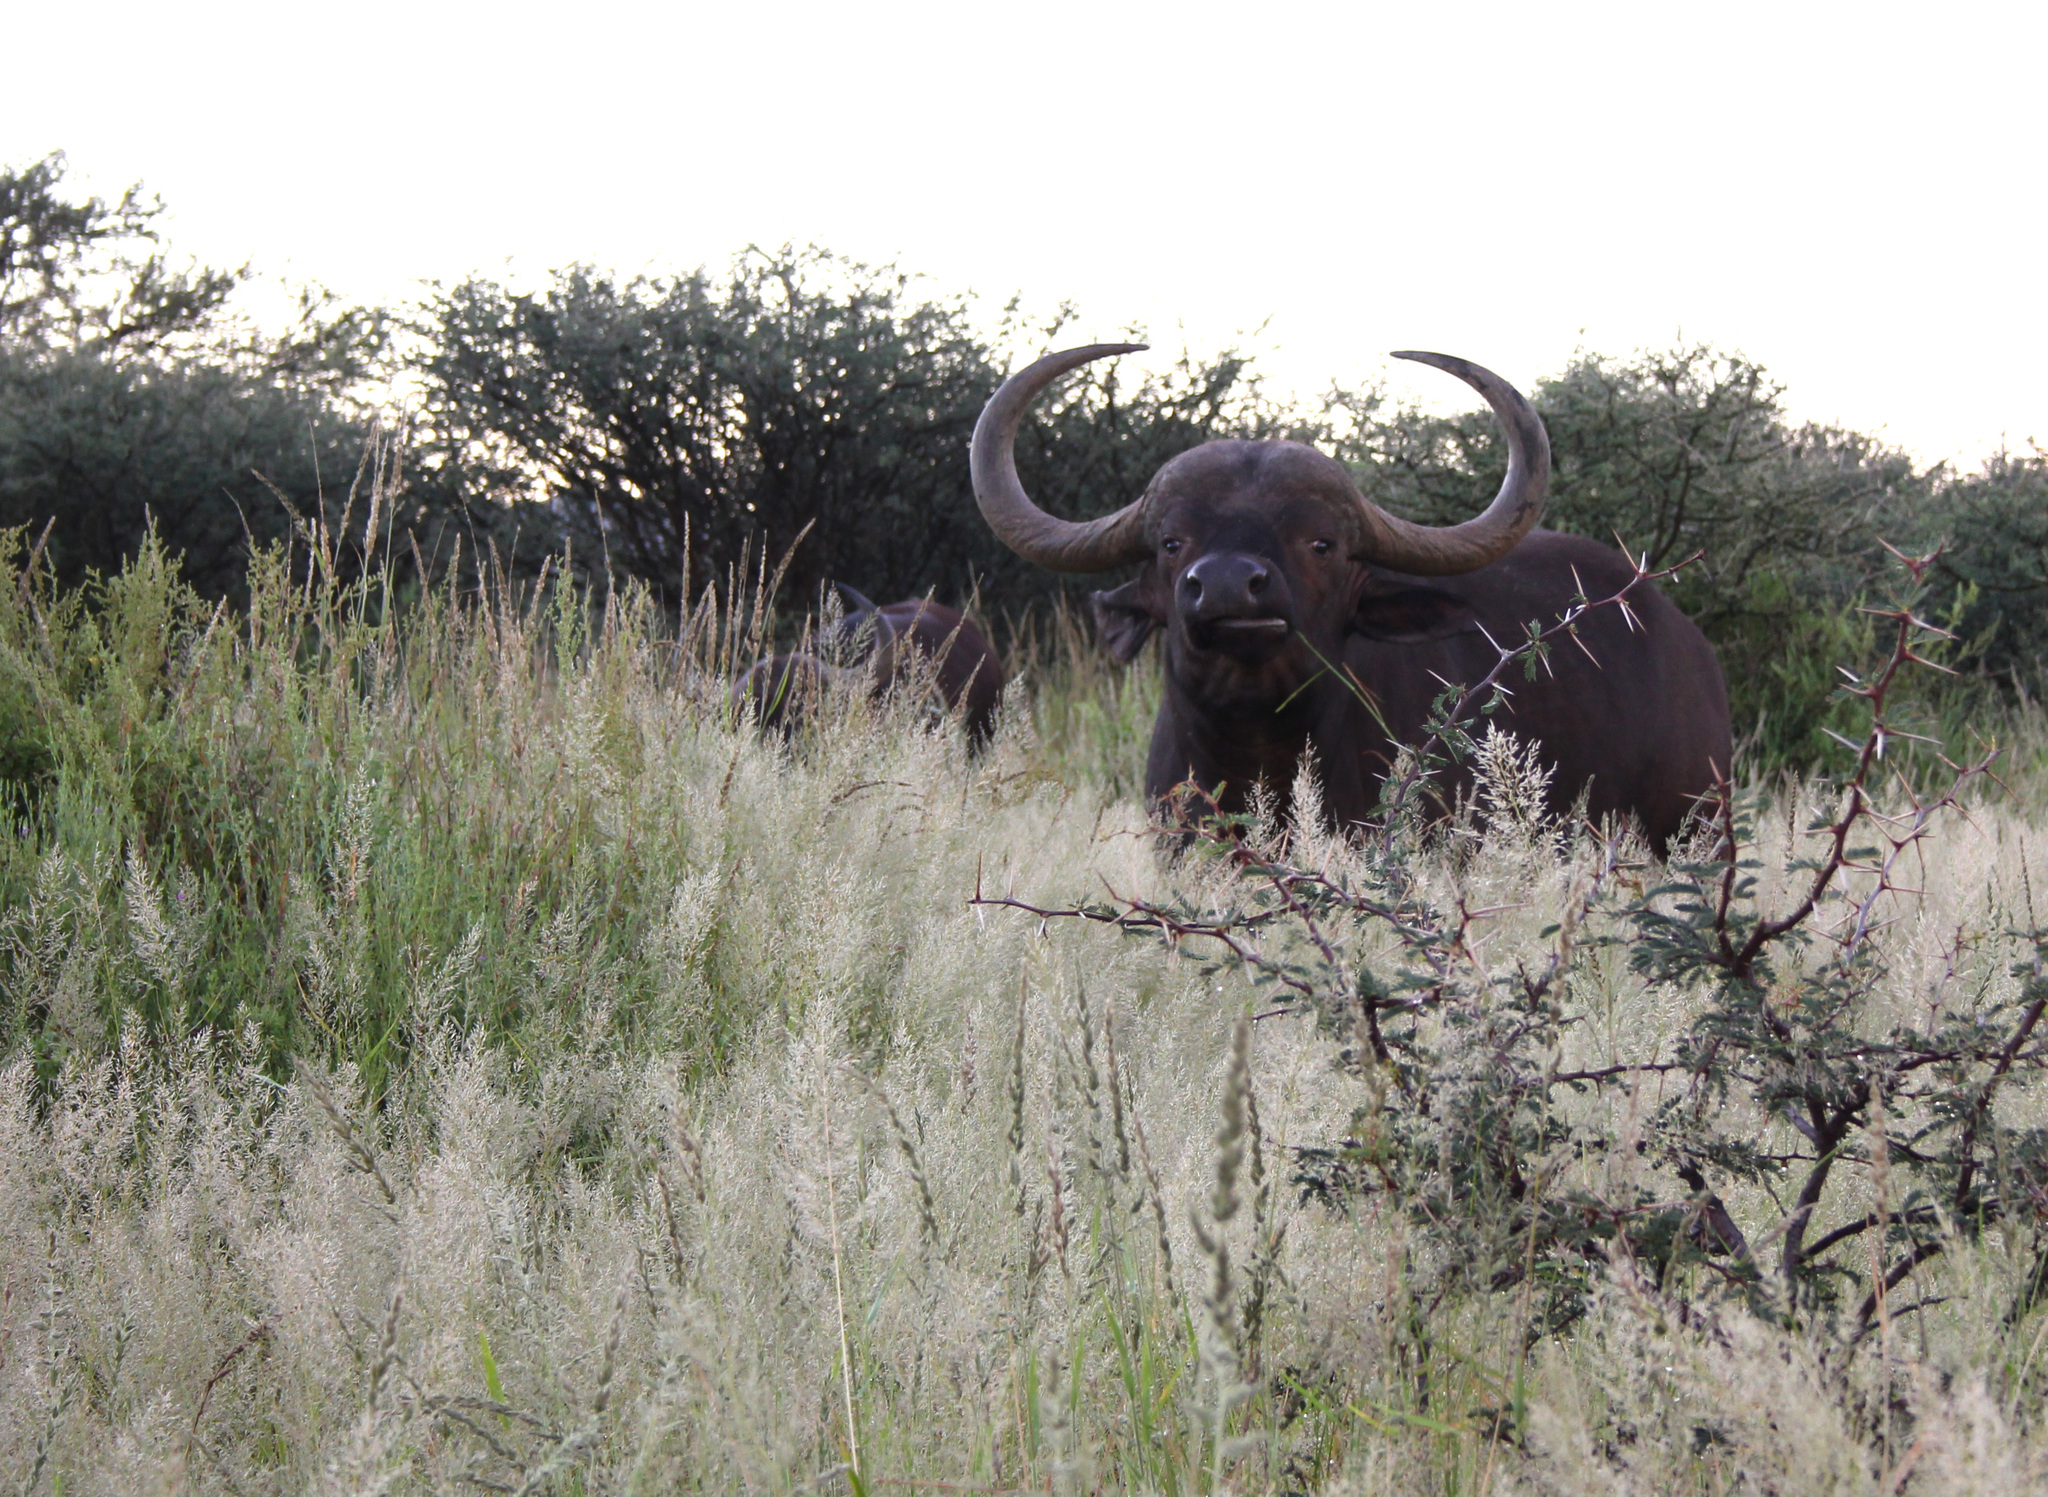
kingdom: Animalia
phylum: Chordata
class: Mammalia
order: Artiodactyla
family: Bovidae
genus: Syncerus
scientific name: Syncerus caffer
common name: African buffalo
